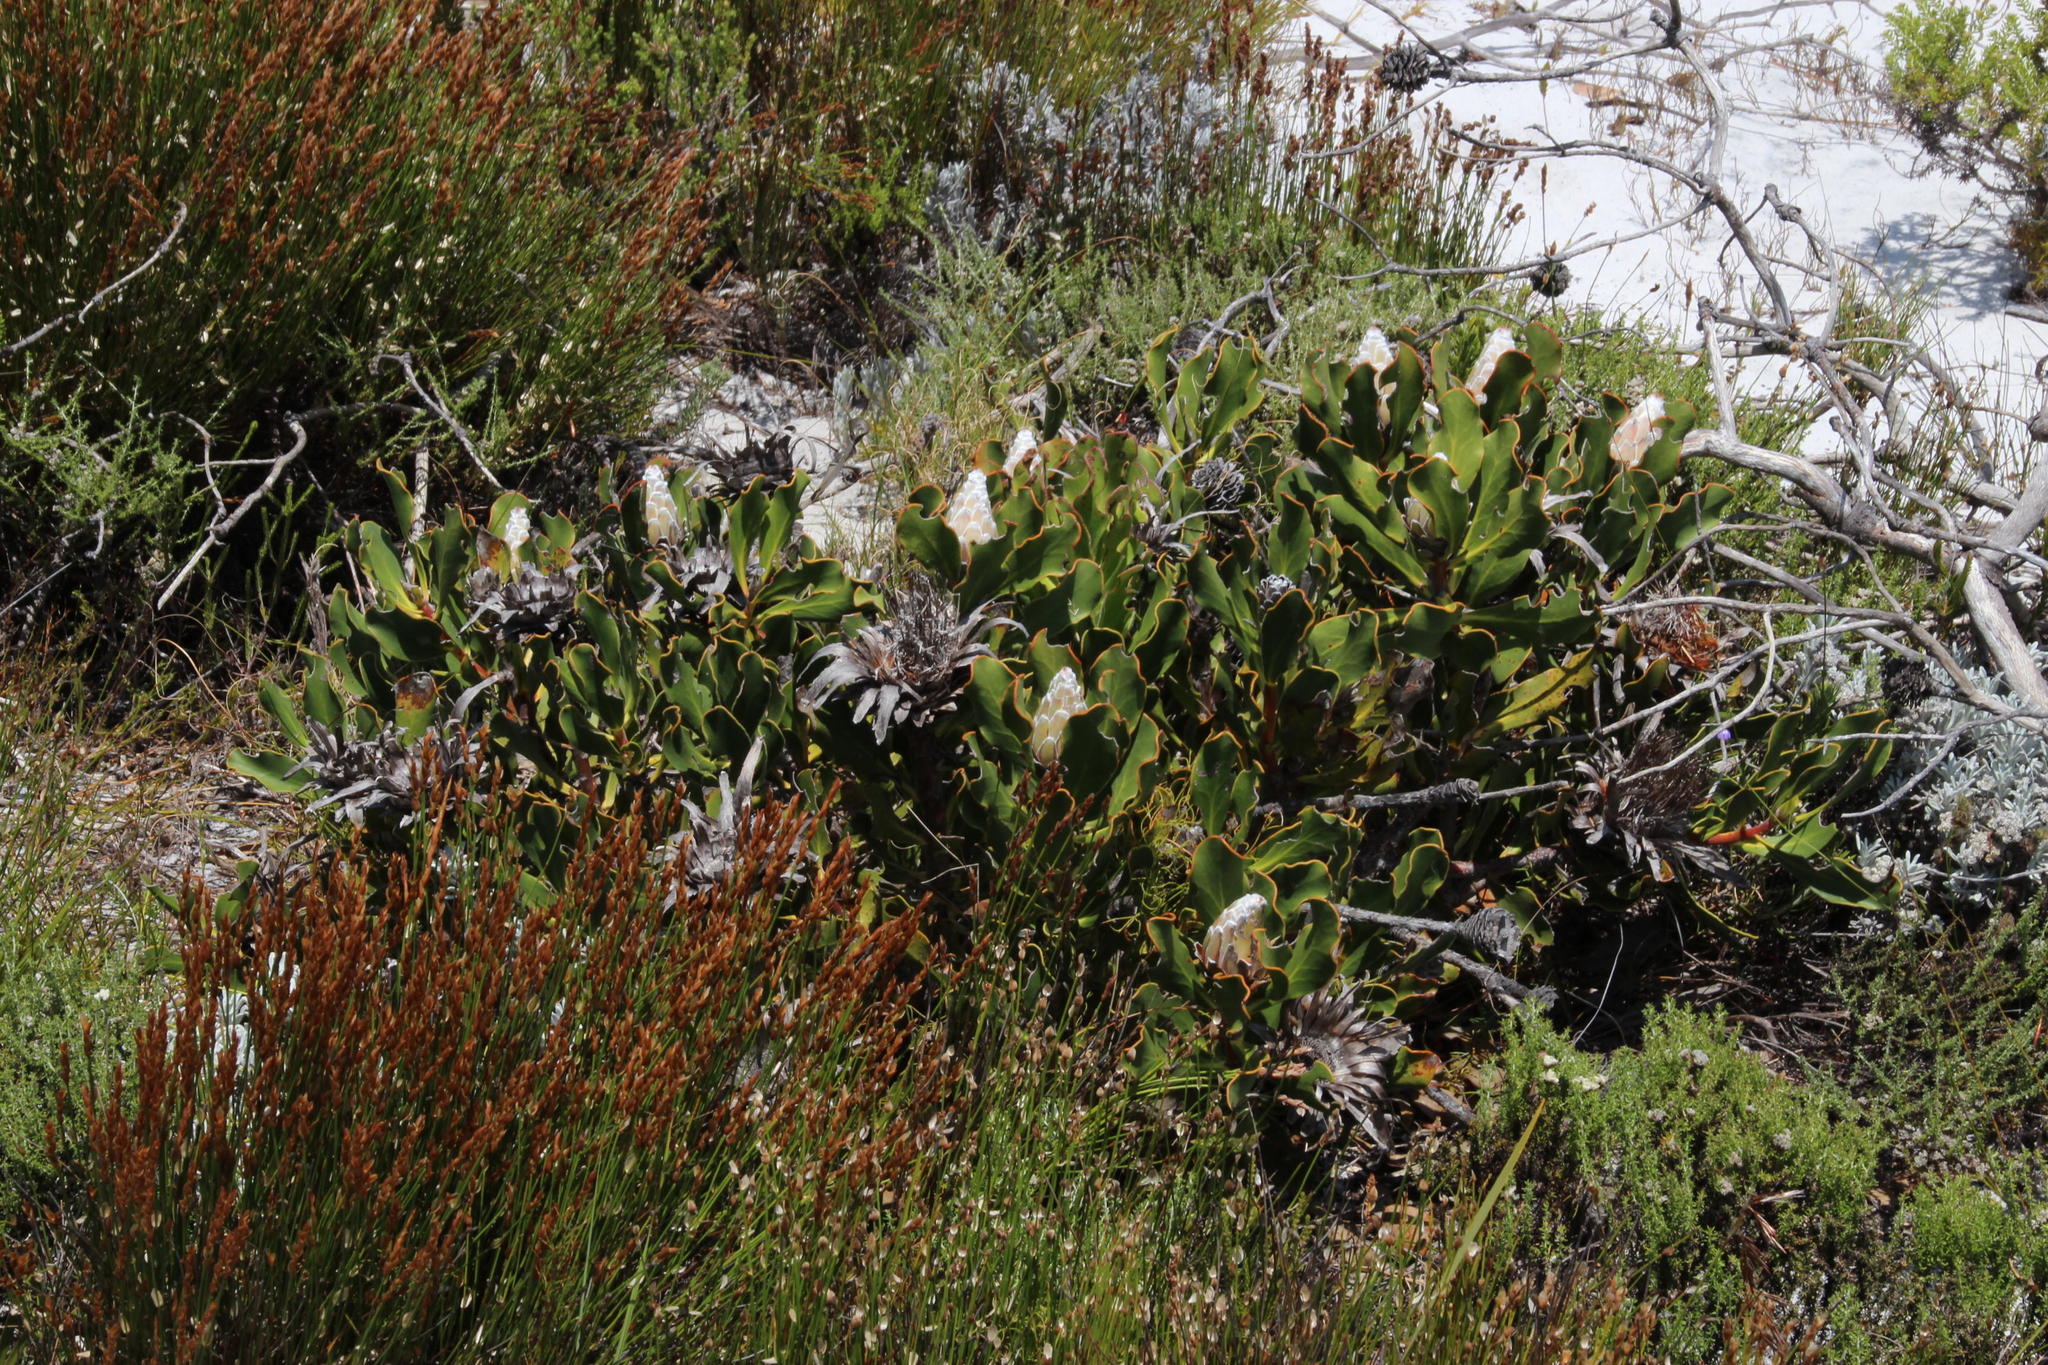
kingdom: Plantae
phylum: Tracheophyta
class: Magnoliopsida
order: Proteales
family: Proteaceae
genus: Protea
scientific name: Protea speciosa
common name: Brown-beard sugarbush
